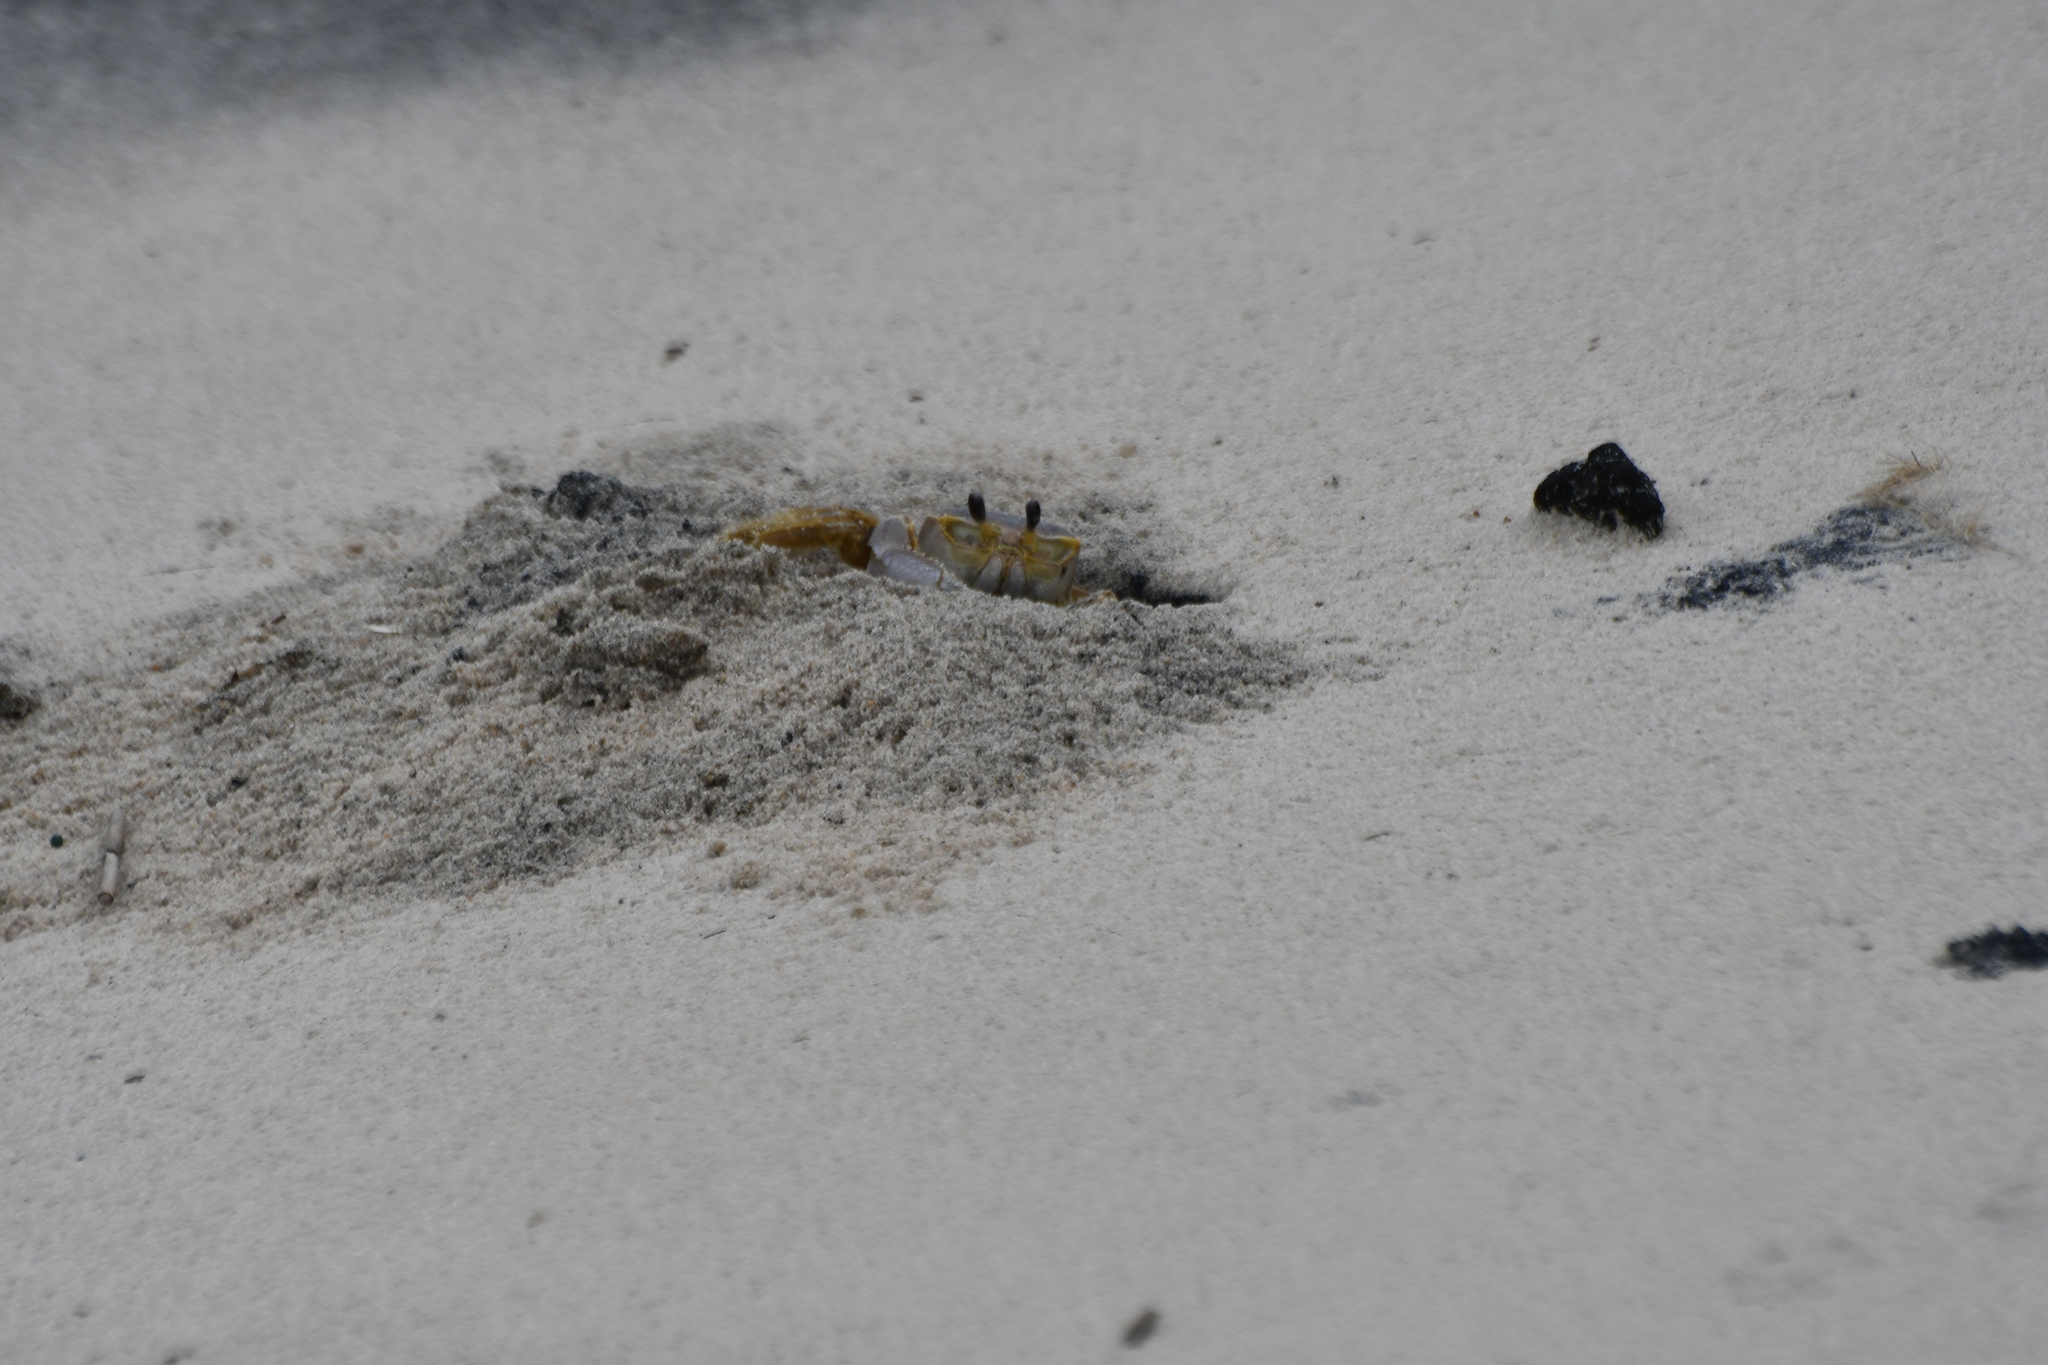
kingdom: Animalia
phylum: Arthropoda
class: Malacostraca
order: Decapoda
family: Ocypodidae
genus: Ocypode
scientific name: Ocypode quadrata
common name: Ghost crab
